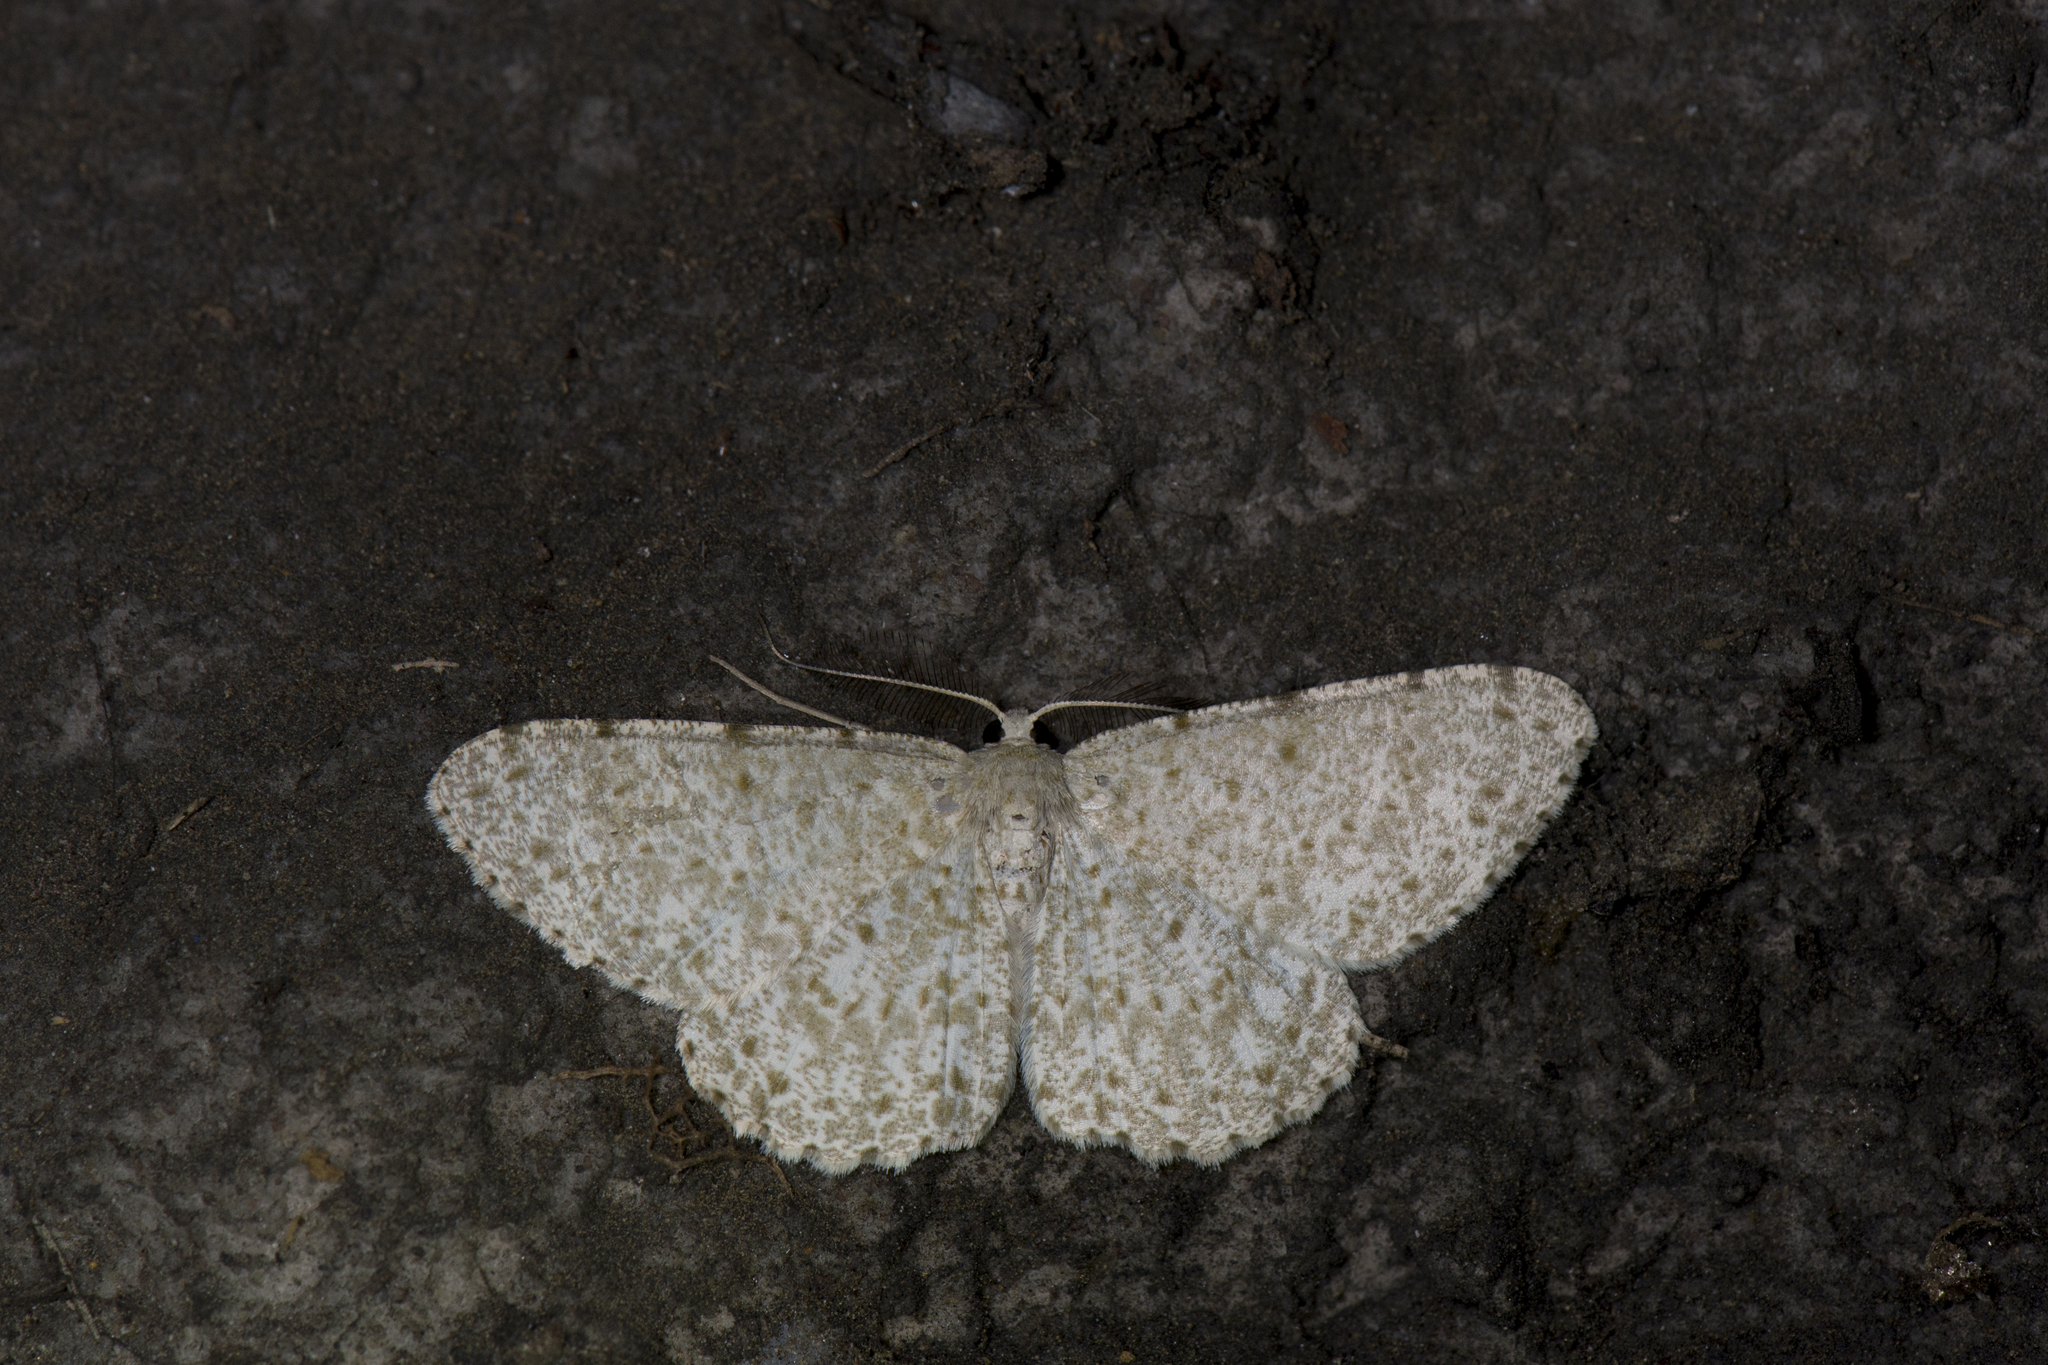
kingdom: Animalia
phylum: Arthropoda
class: Insecta
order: Lepidoptera
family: Geometridae
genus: Catoria
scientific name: Catoria sublavaria
